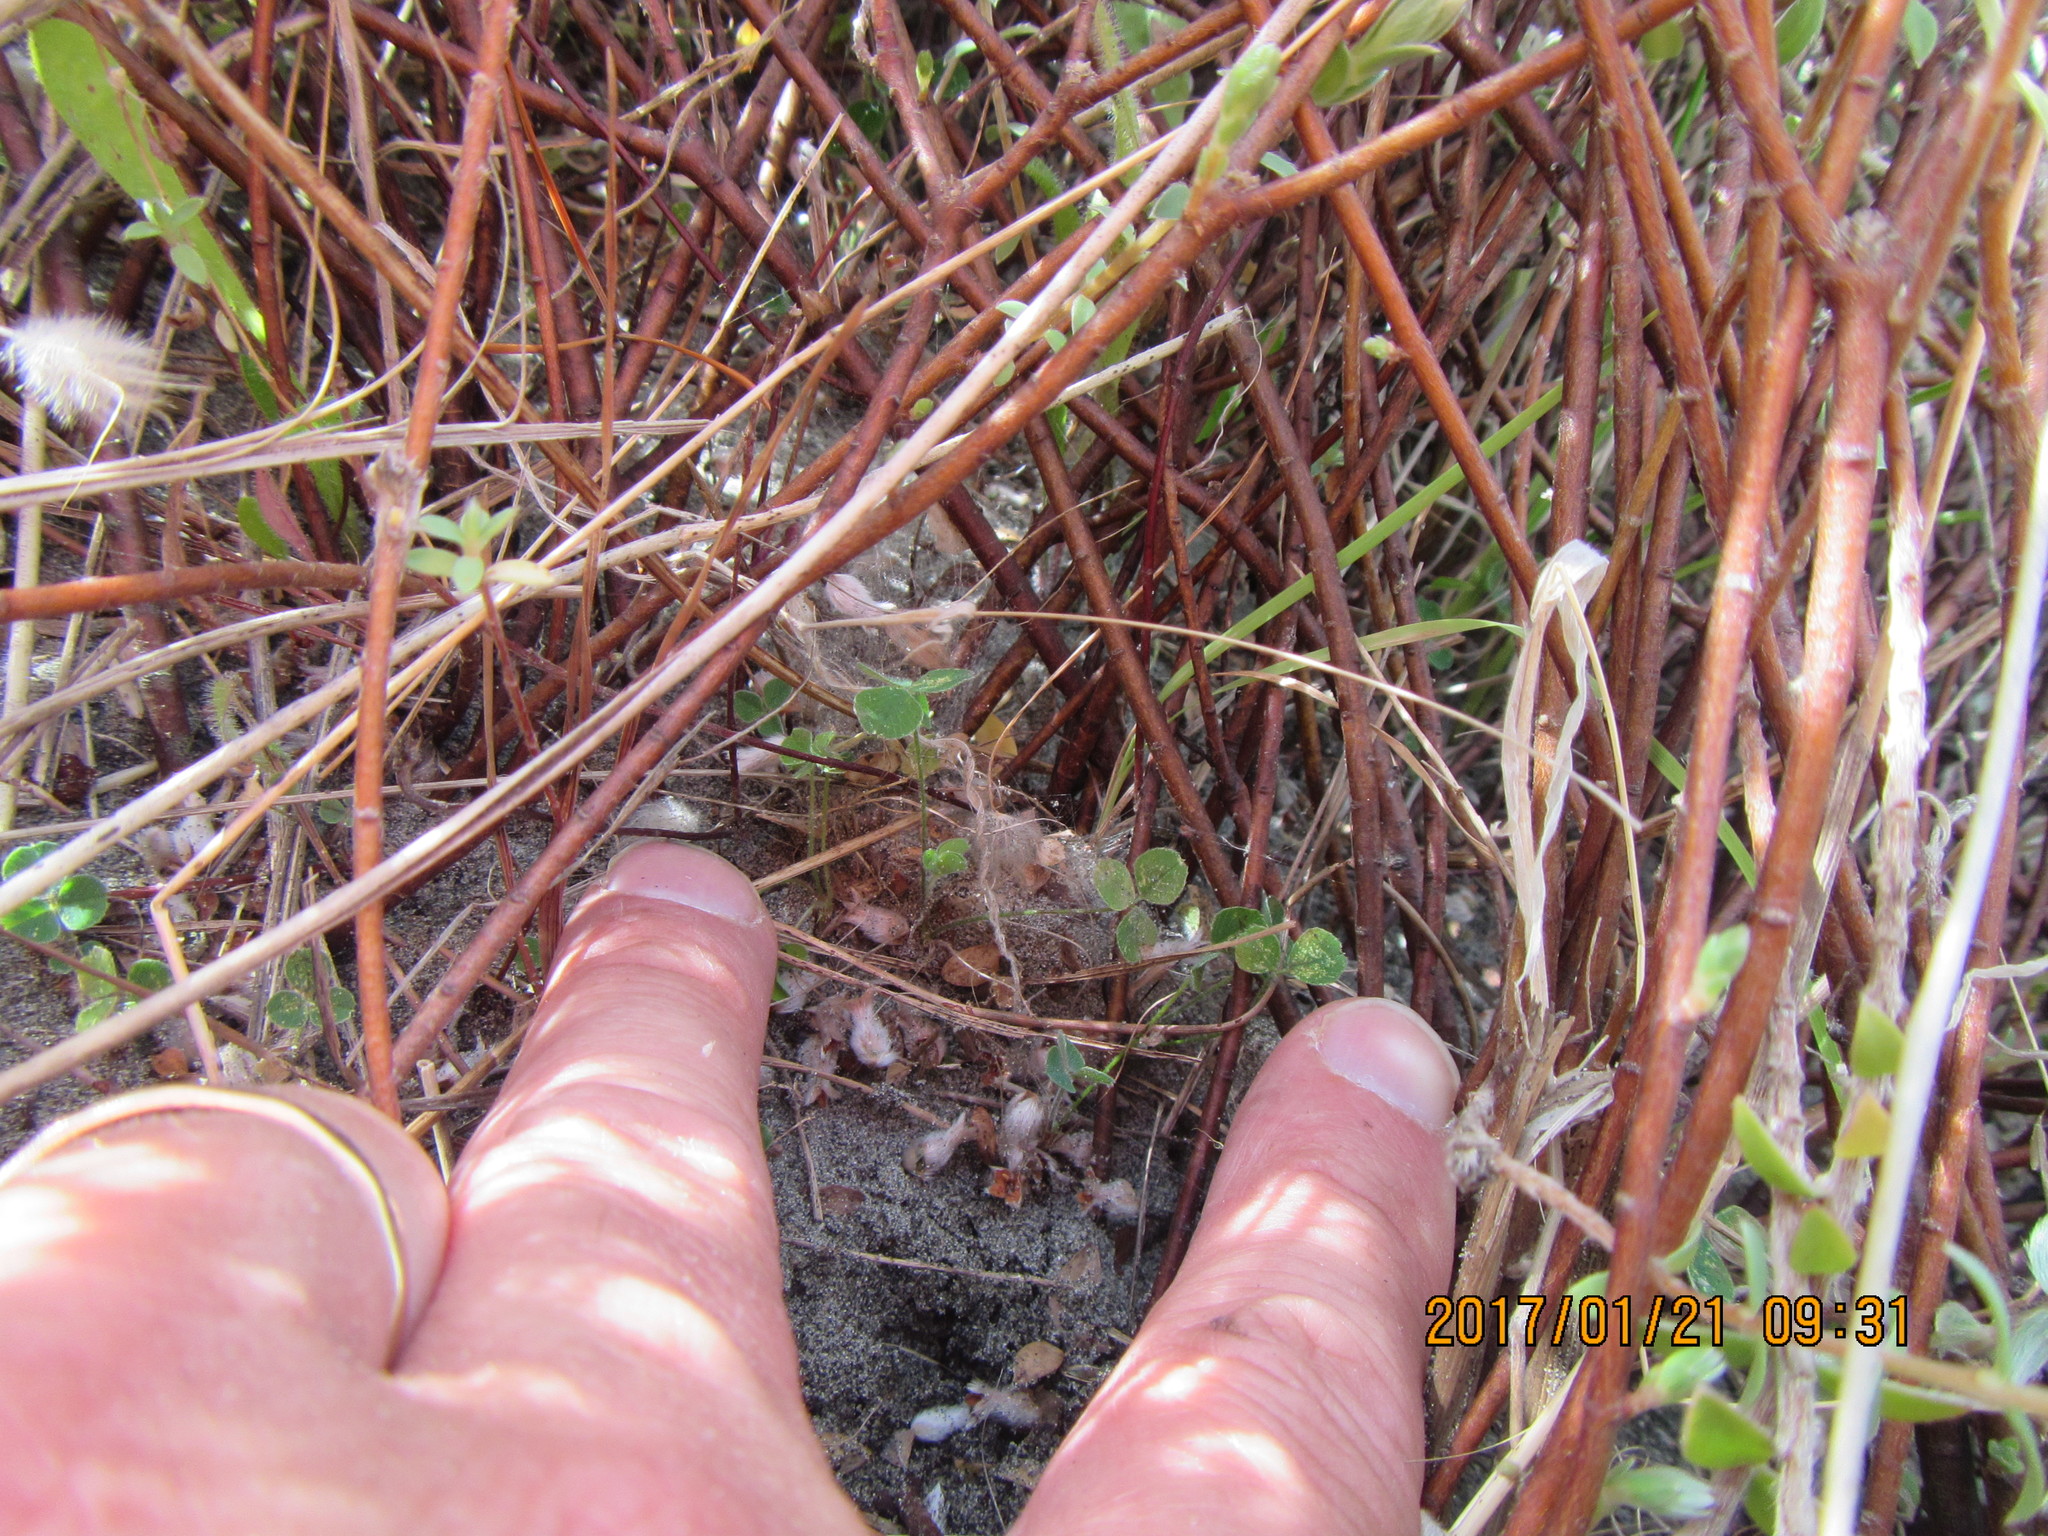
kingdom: Animalia
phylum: Arthropoda
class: Arachnida
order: Araneae
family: Theridiidae
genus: Latrodectus
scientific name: Latrodectus katipo
